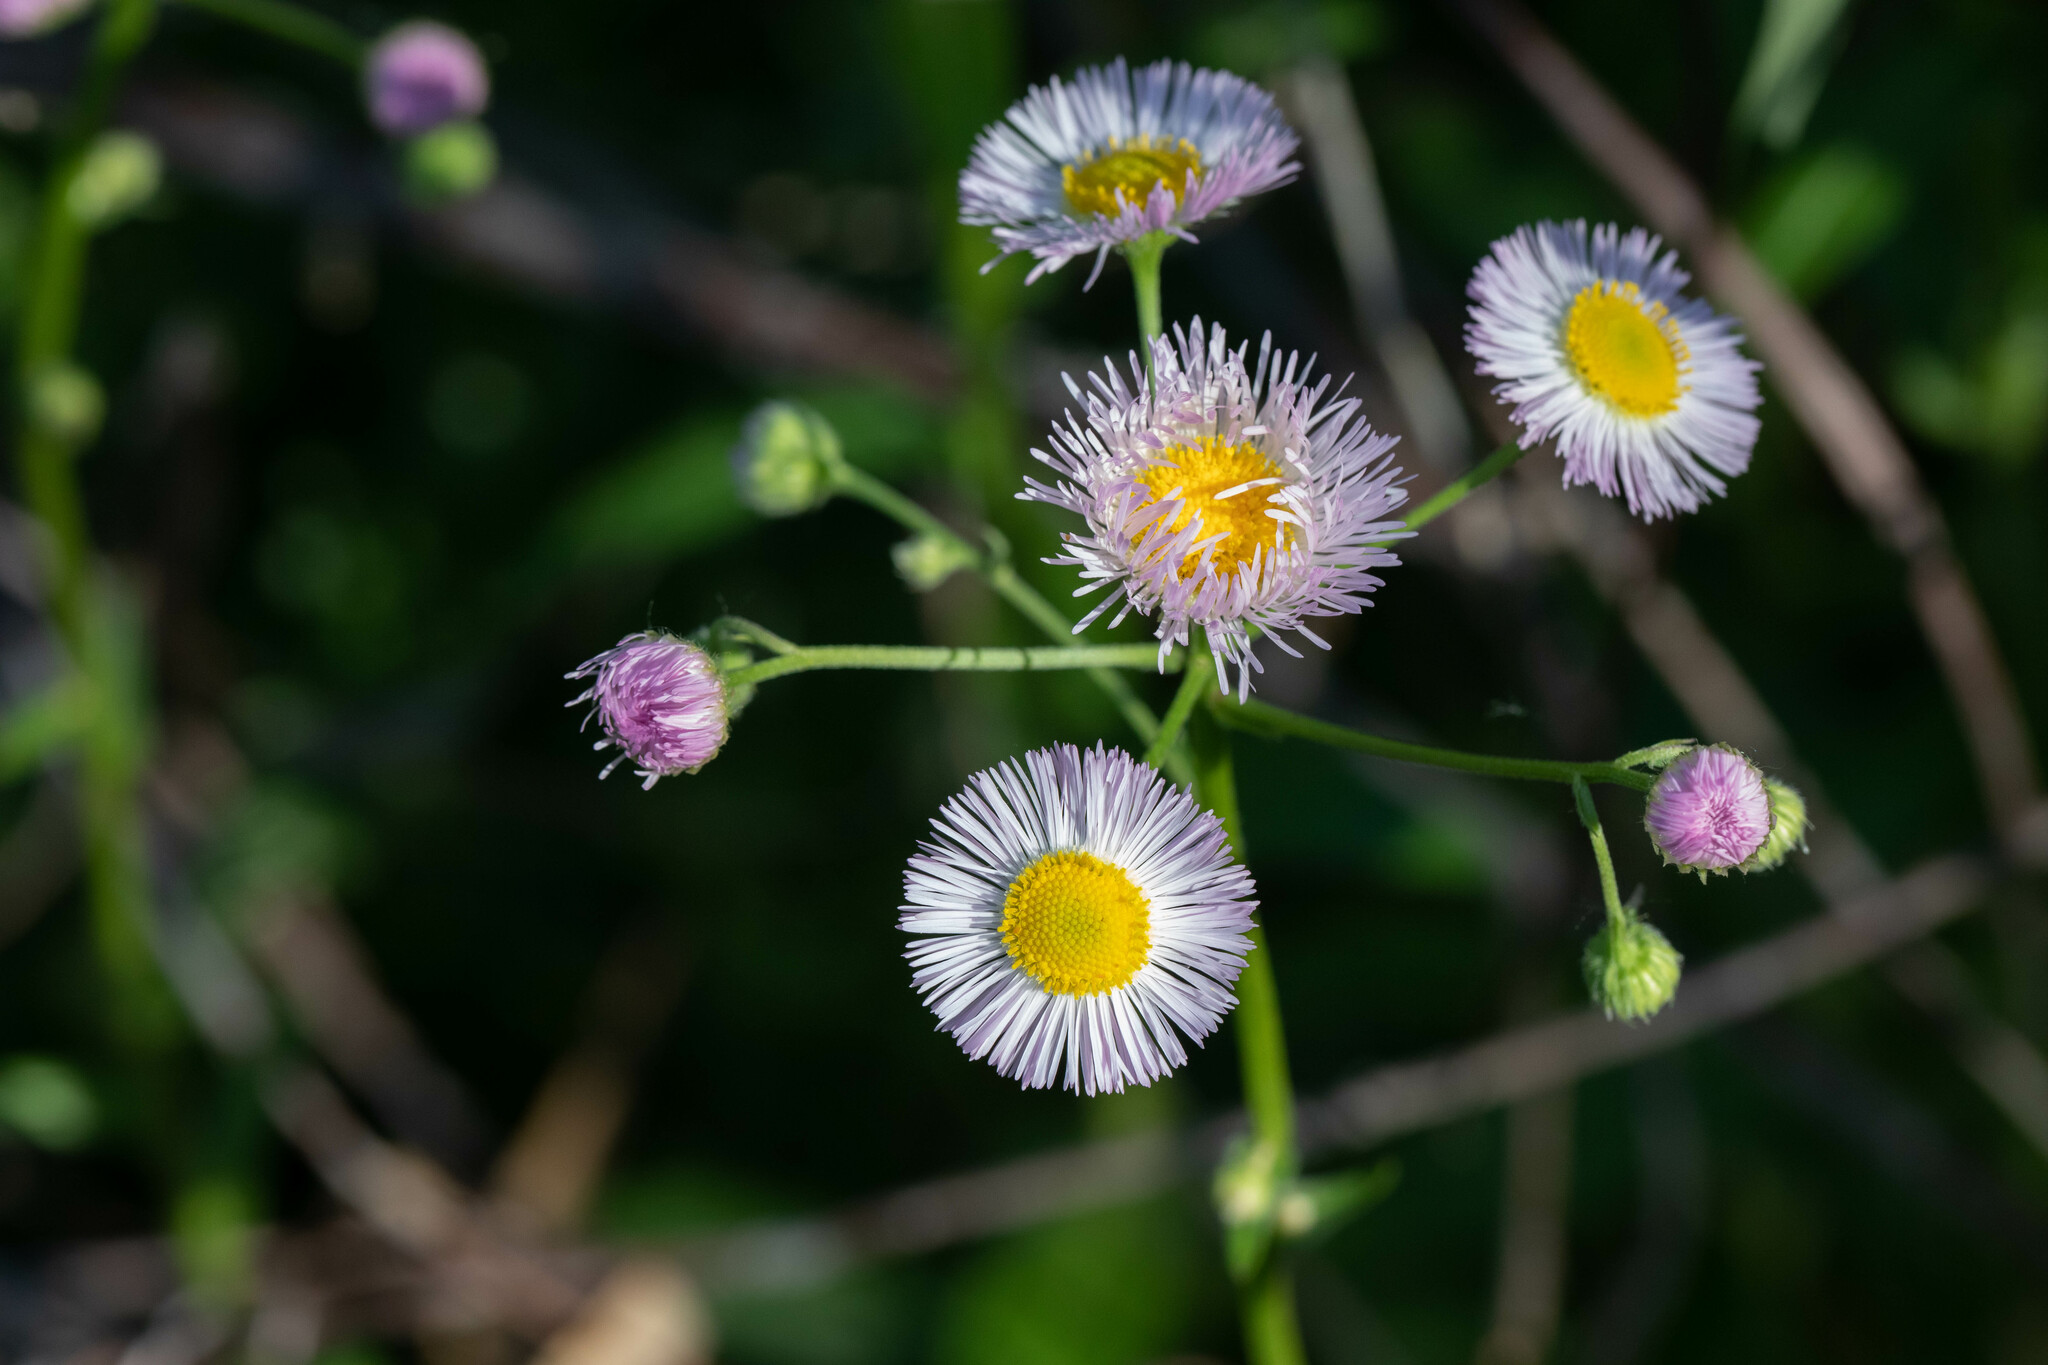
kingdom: Plantae
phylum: Tracheophyta
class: Magnoliopsida
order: Asterales
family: Asteraceae
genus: Erigeron
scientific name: Erigeron philadelphicus
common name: Robin's-plantain
